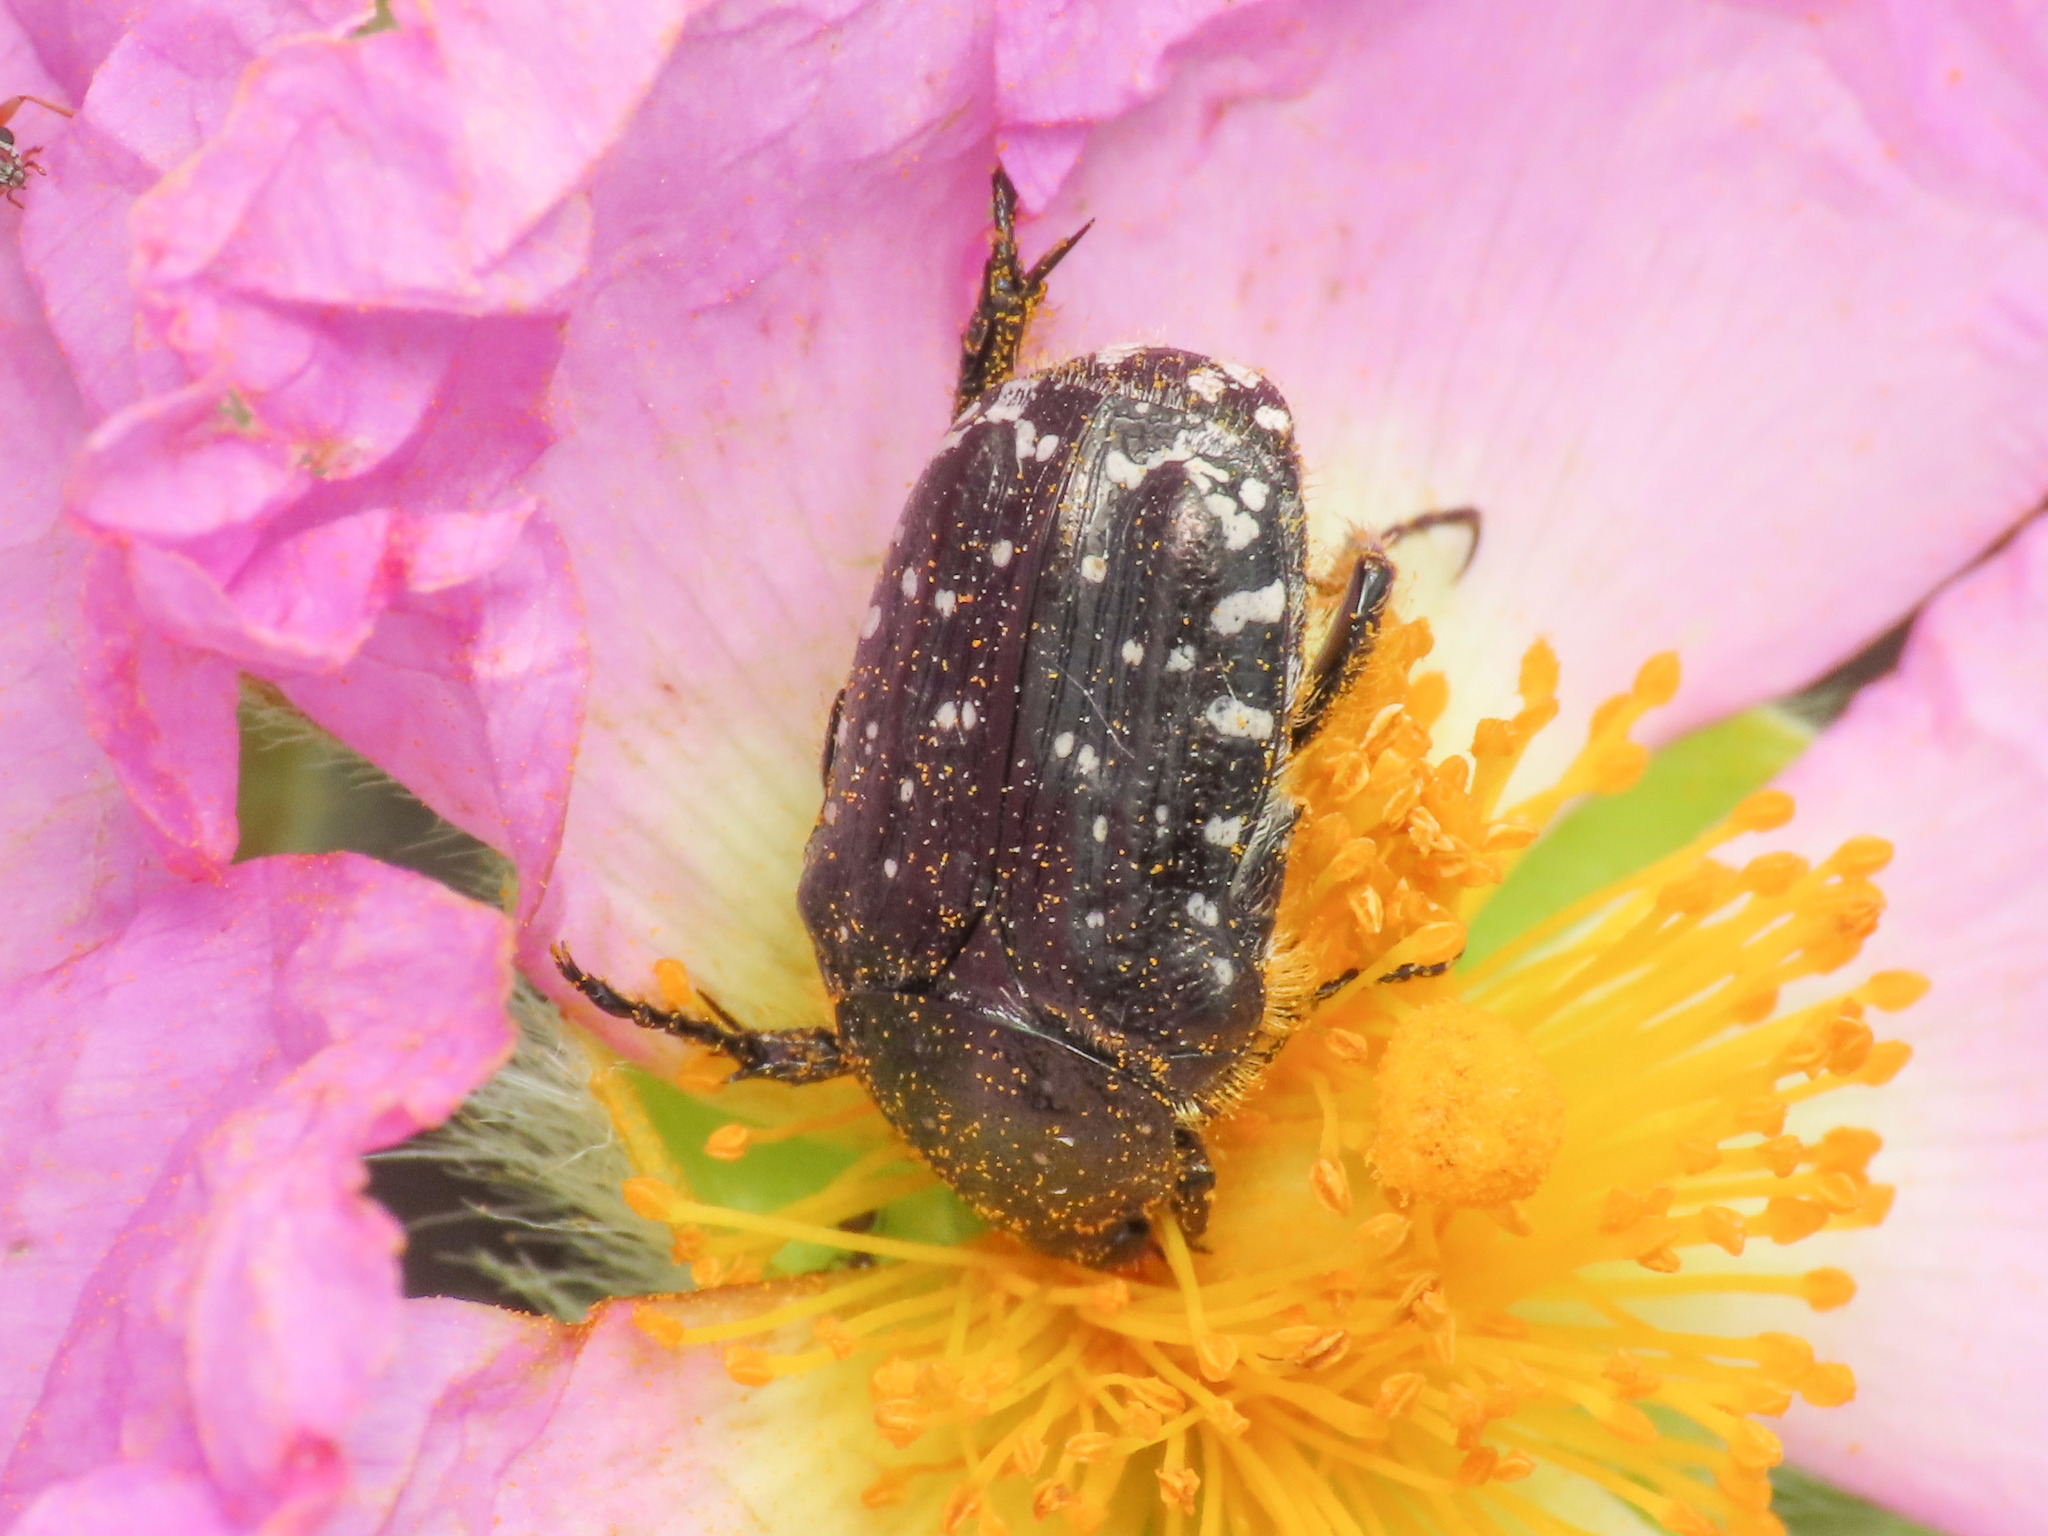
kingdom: Animalia
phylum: Arthropoda
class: Insecta
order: Coleoptera
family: Scarabaeidae
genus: Oxythyrea
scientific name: Oxythyrea funesta
